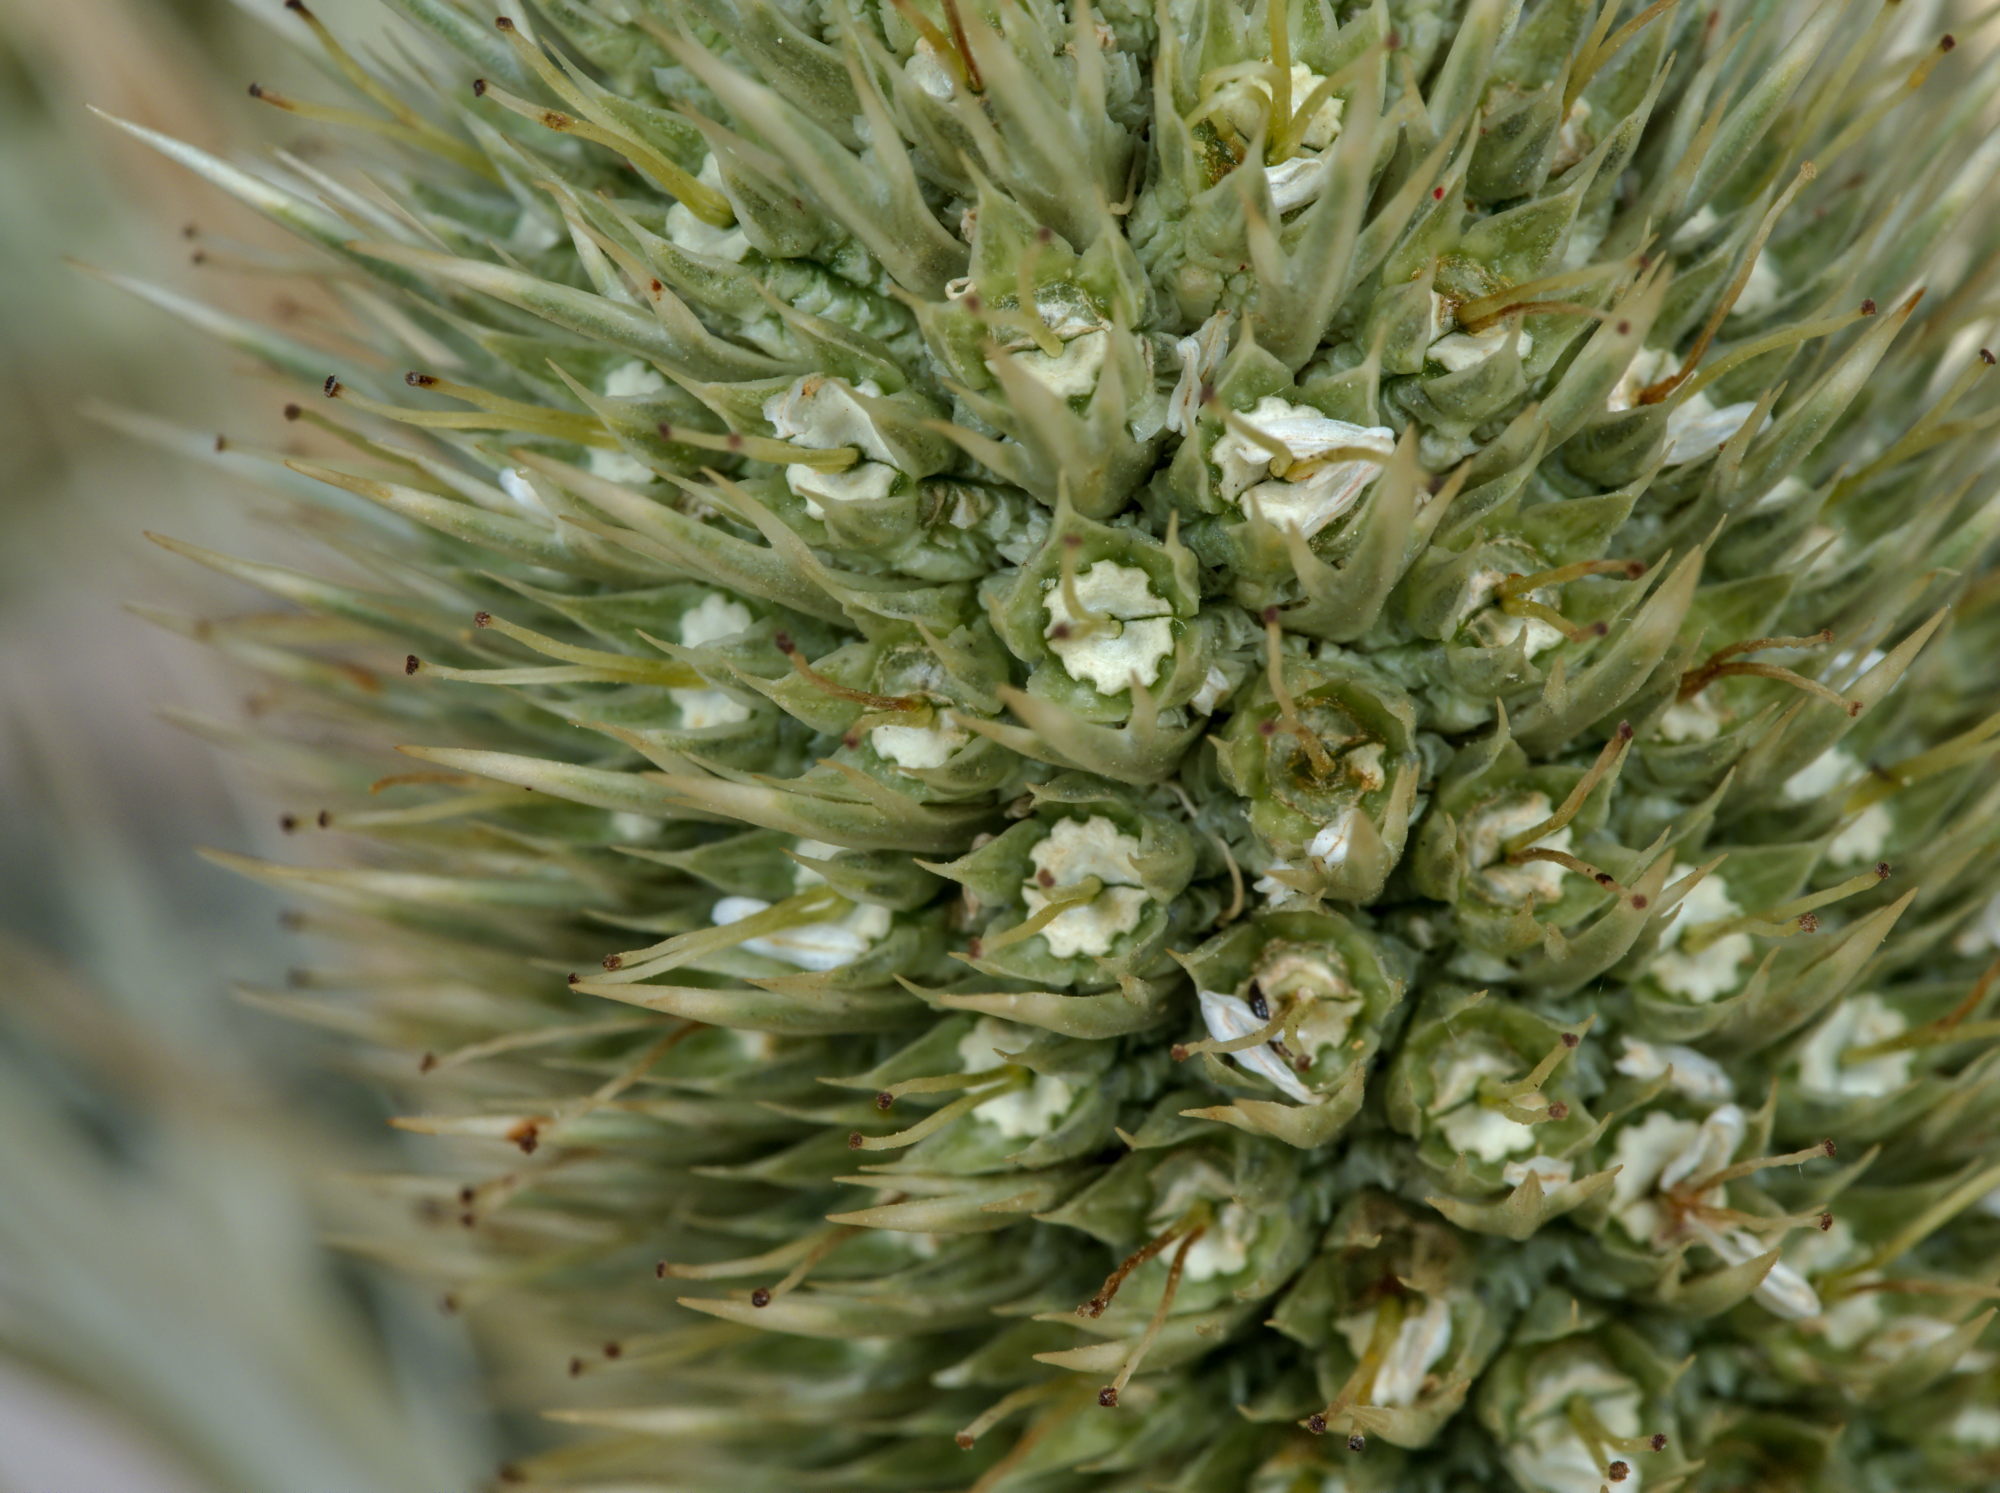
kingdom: Plantae
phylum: Tracheophyta
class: Magnoliopsida
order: Apiales
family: Apiaceae
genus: Eryngium
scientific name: Eryngium spinalba
